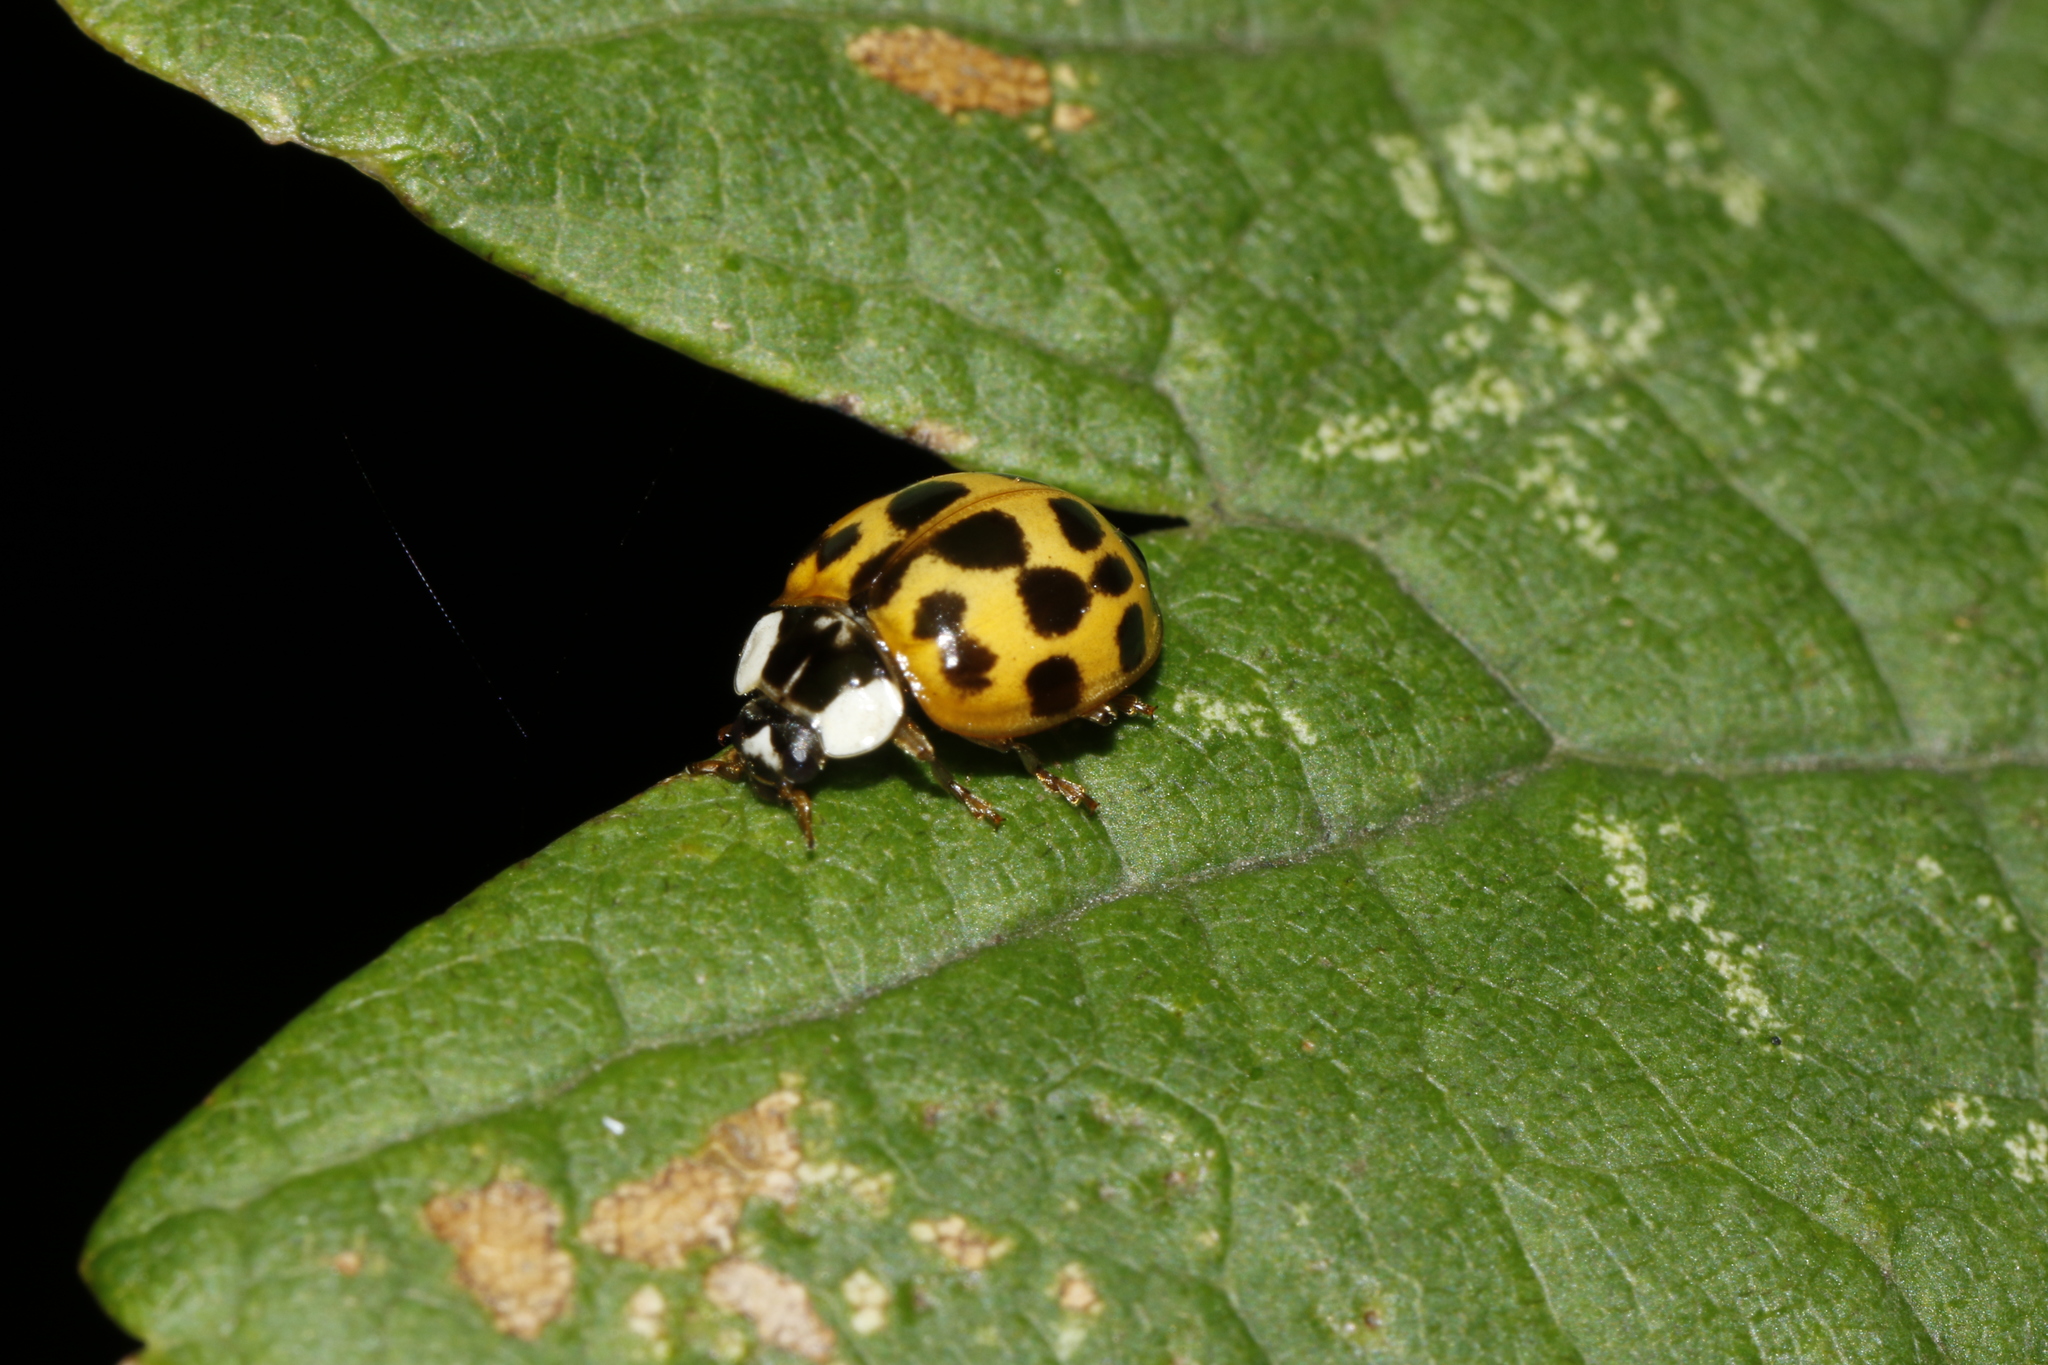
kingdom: Animalia
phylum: Arthropoda
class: Insecta
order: Coleoptera
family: Coccinellidae
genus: Harmonia
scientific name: Harmonia axyridis
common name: Harlequin ladybird
